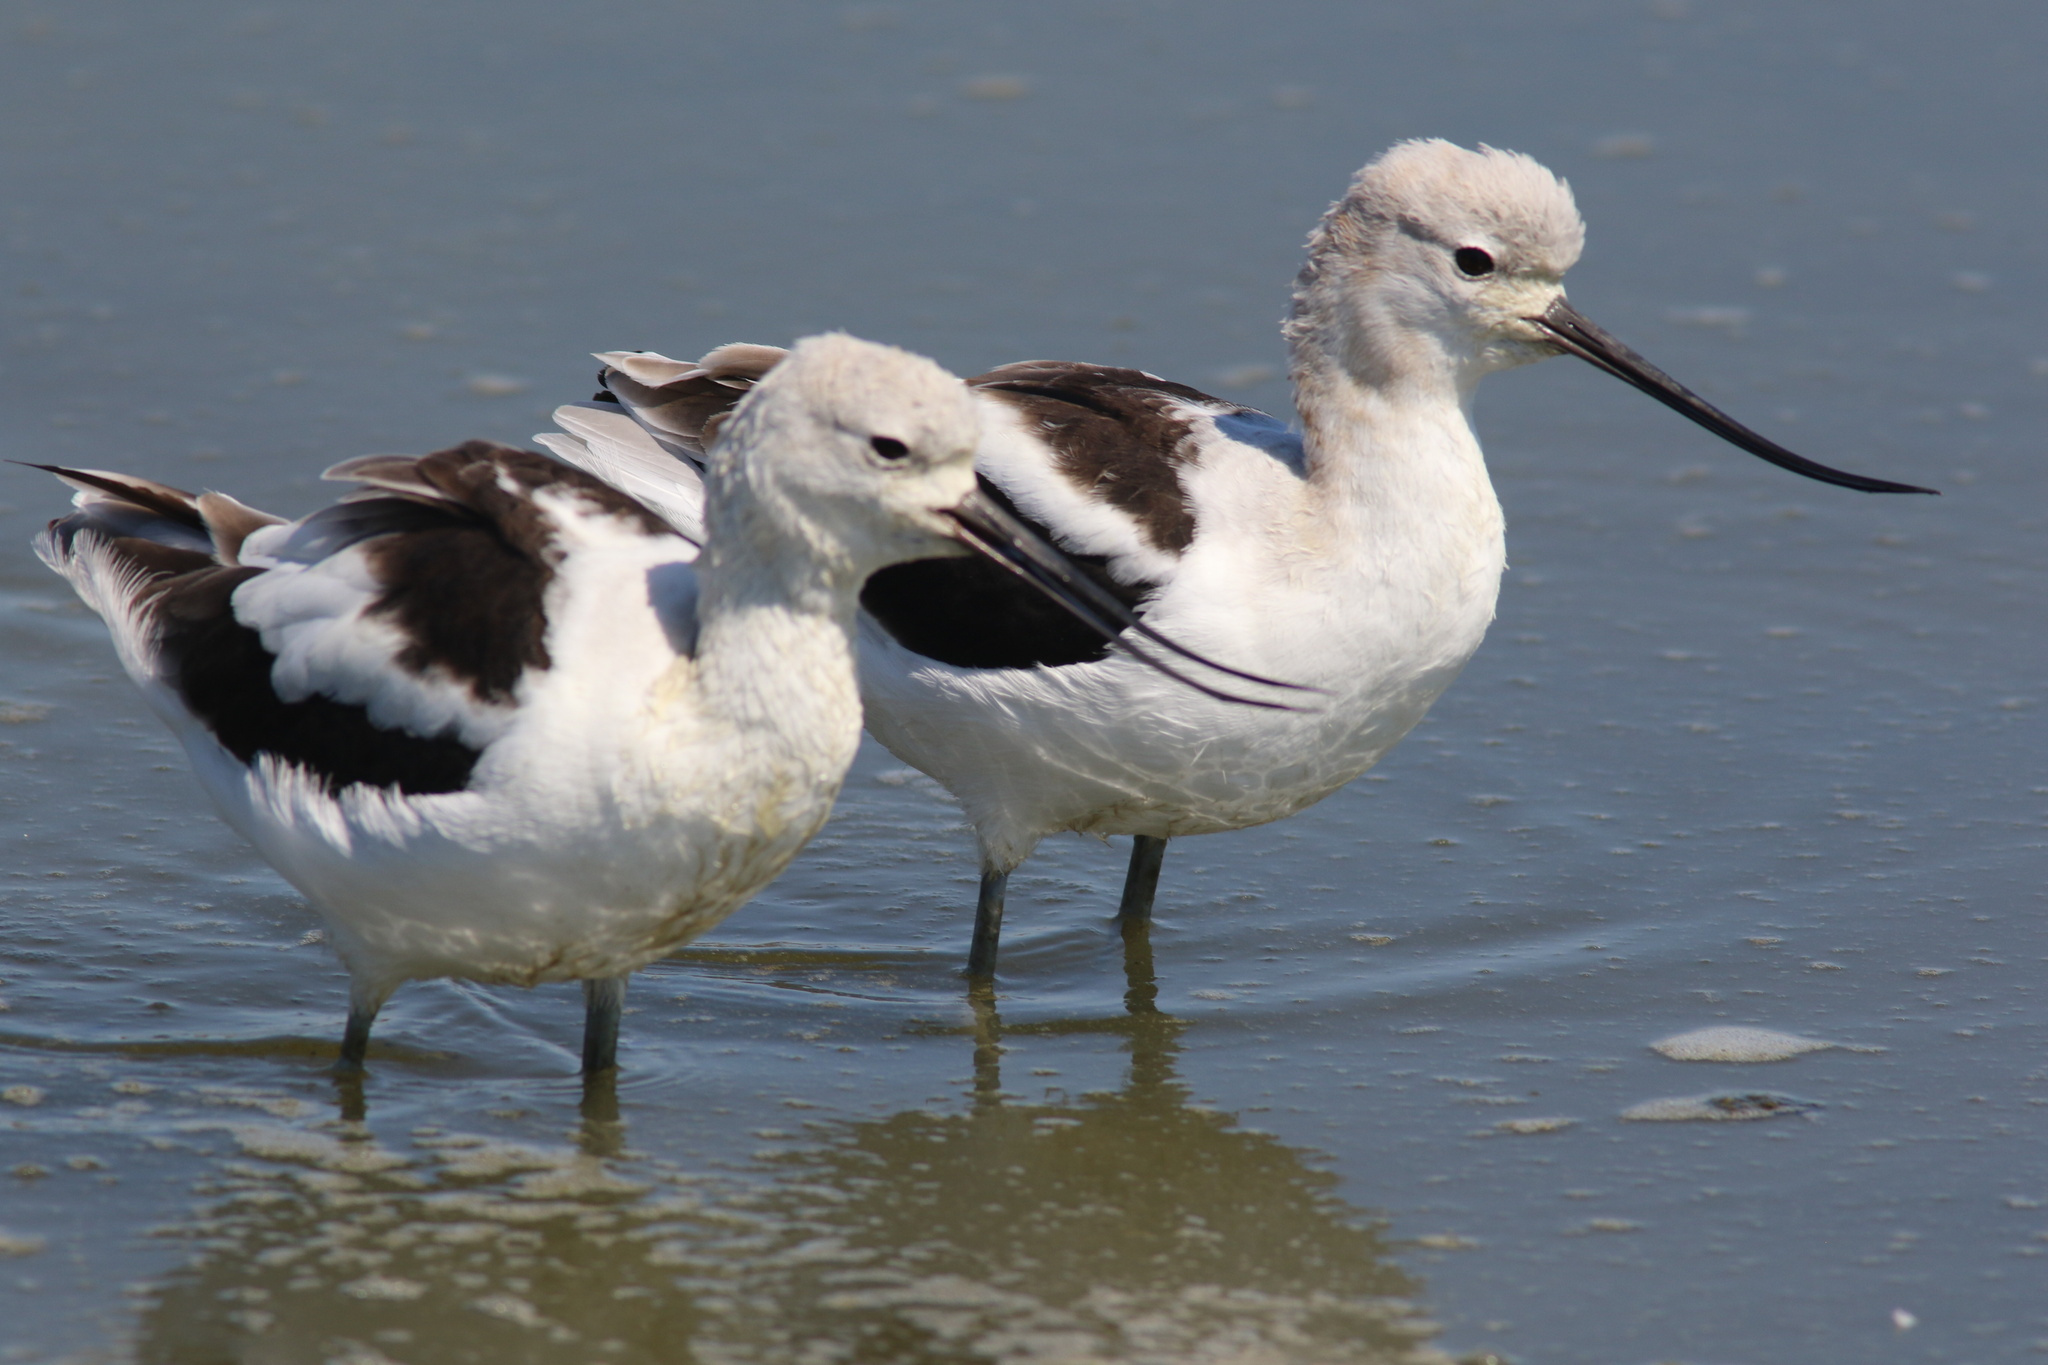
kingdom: Animalia
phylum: Chordata
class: Aves
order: Charadriiformes
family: Recurvirostridae
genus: Recurvirostra
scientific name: Recurvirostra americana
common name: American avocet
